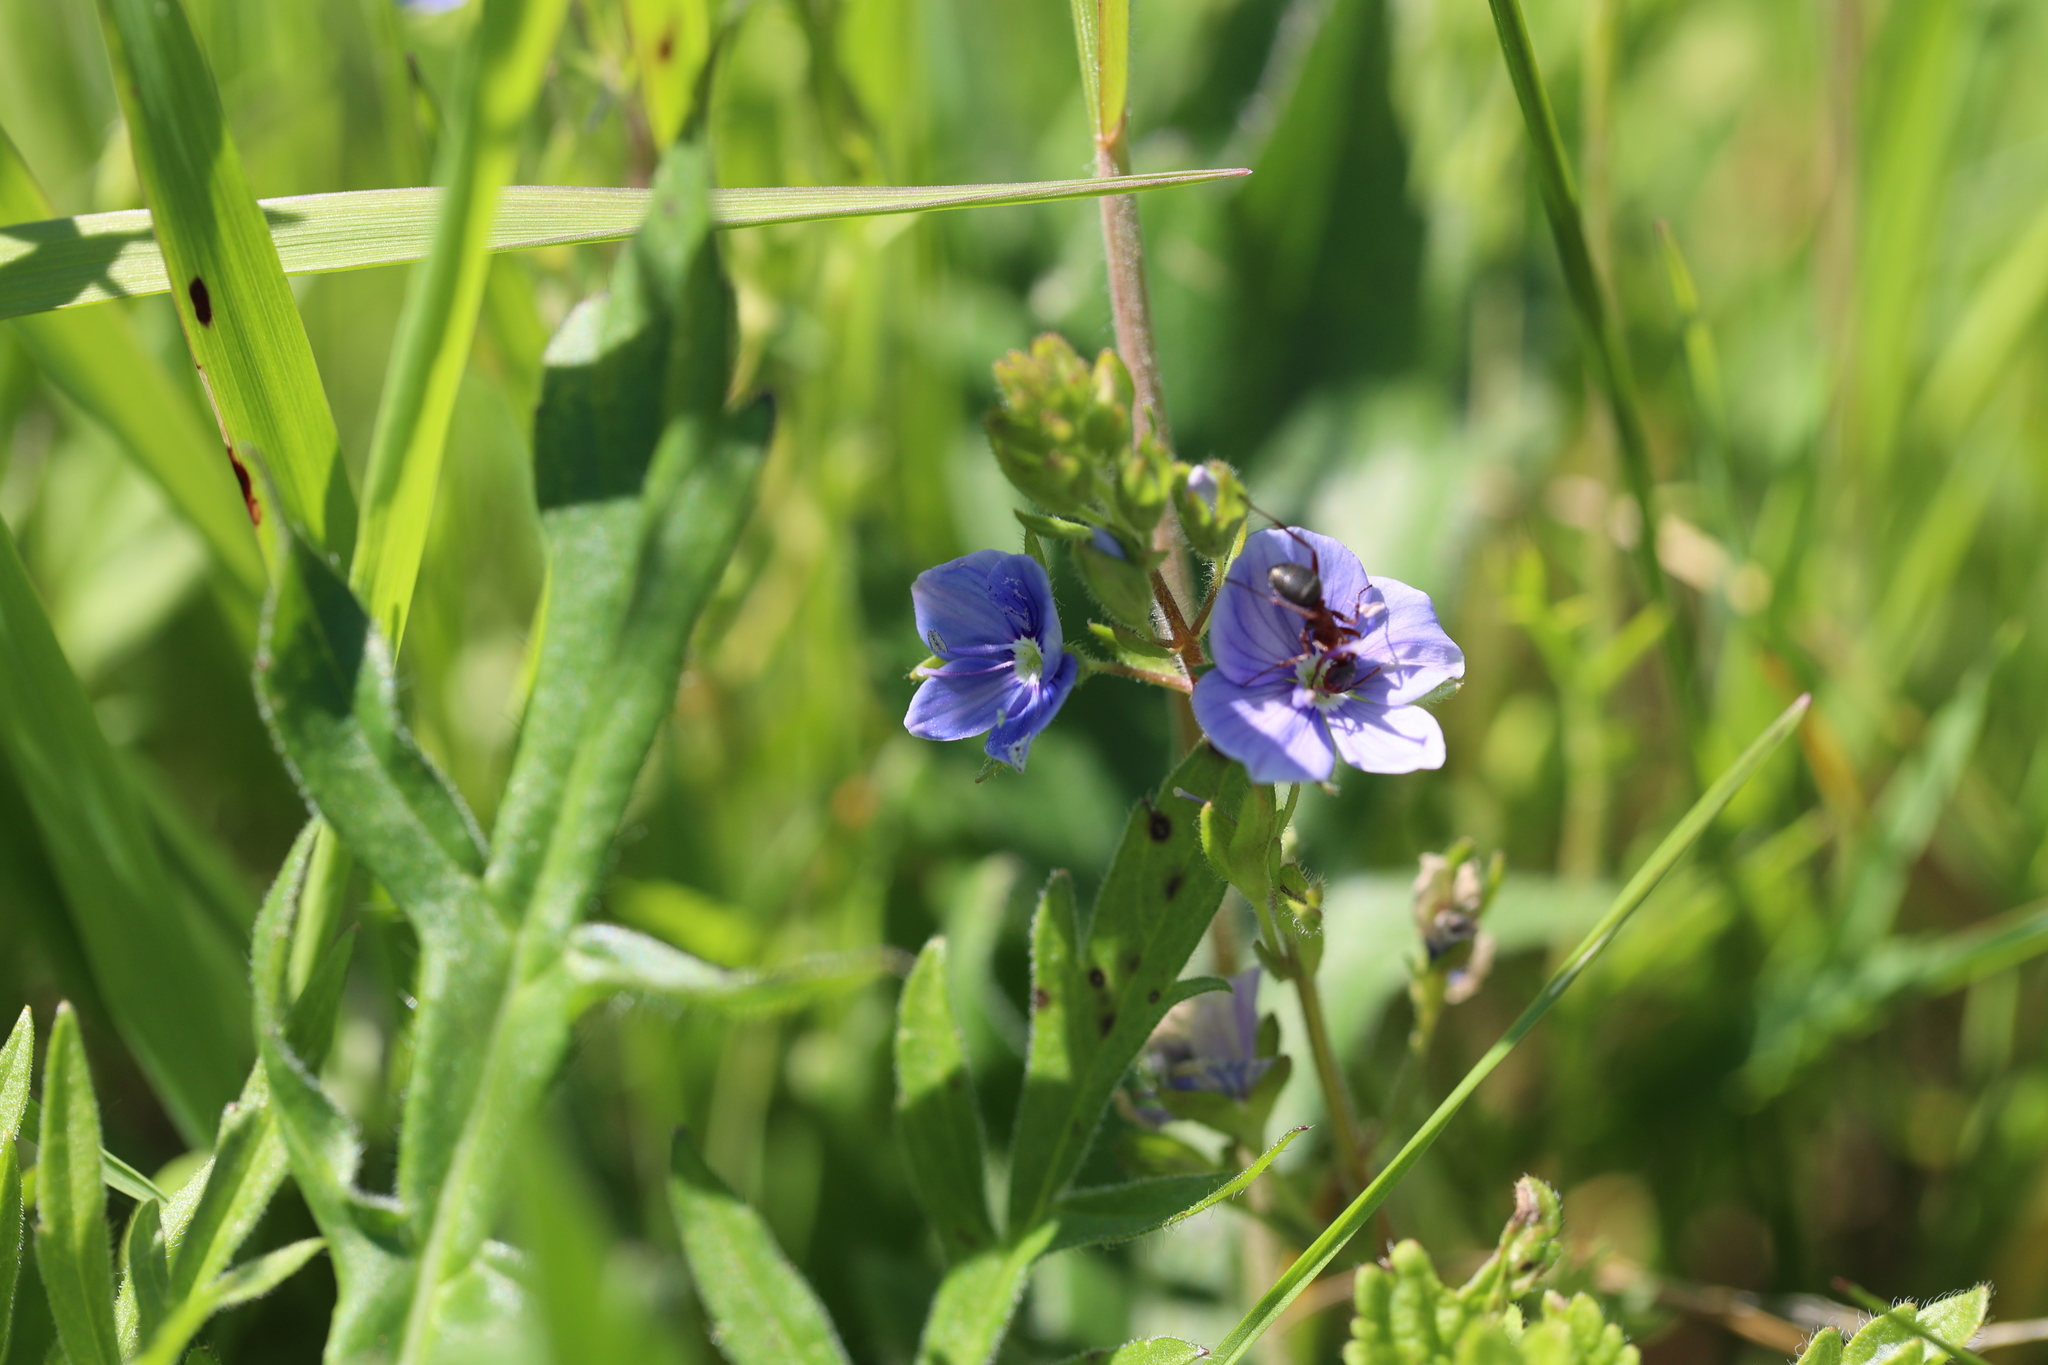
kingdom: Plantae
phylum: Tracheophyta
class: Magnoliopsida
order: Lamiales
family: Plantaginaceae
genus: Veronica
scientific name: Veronica chamaedrys
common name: Germander speedwell
